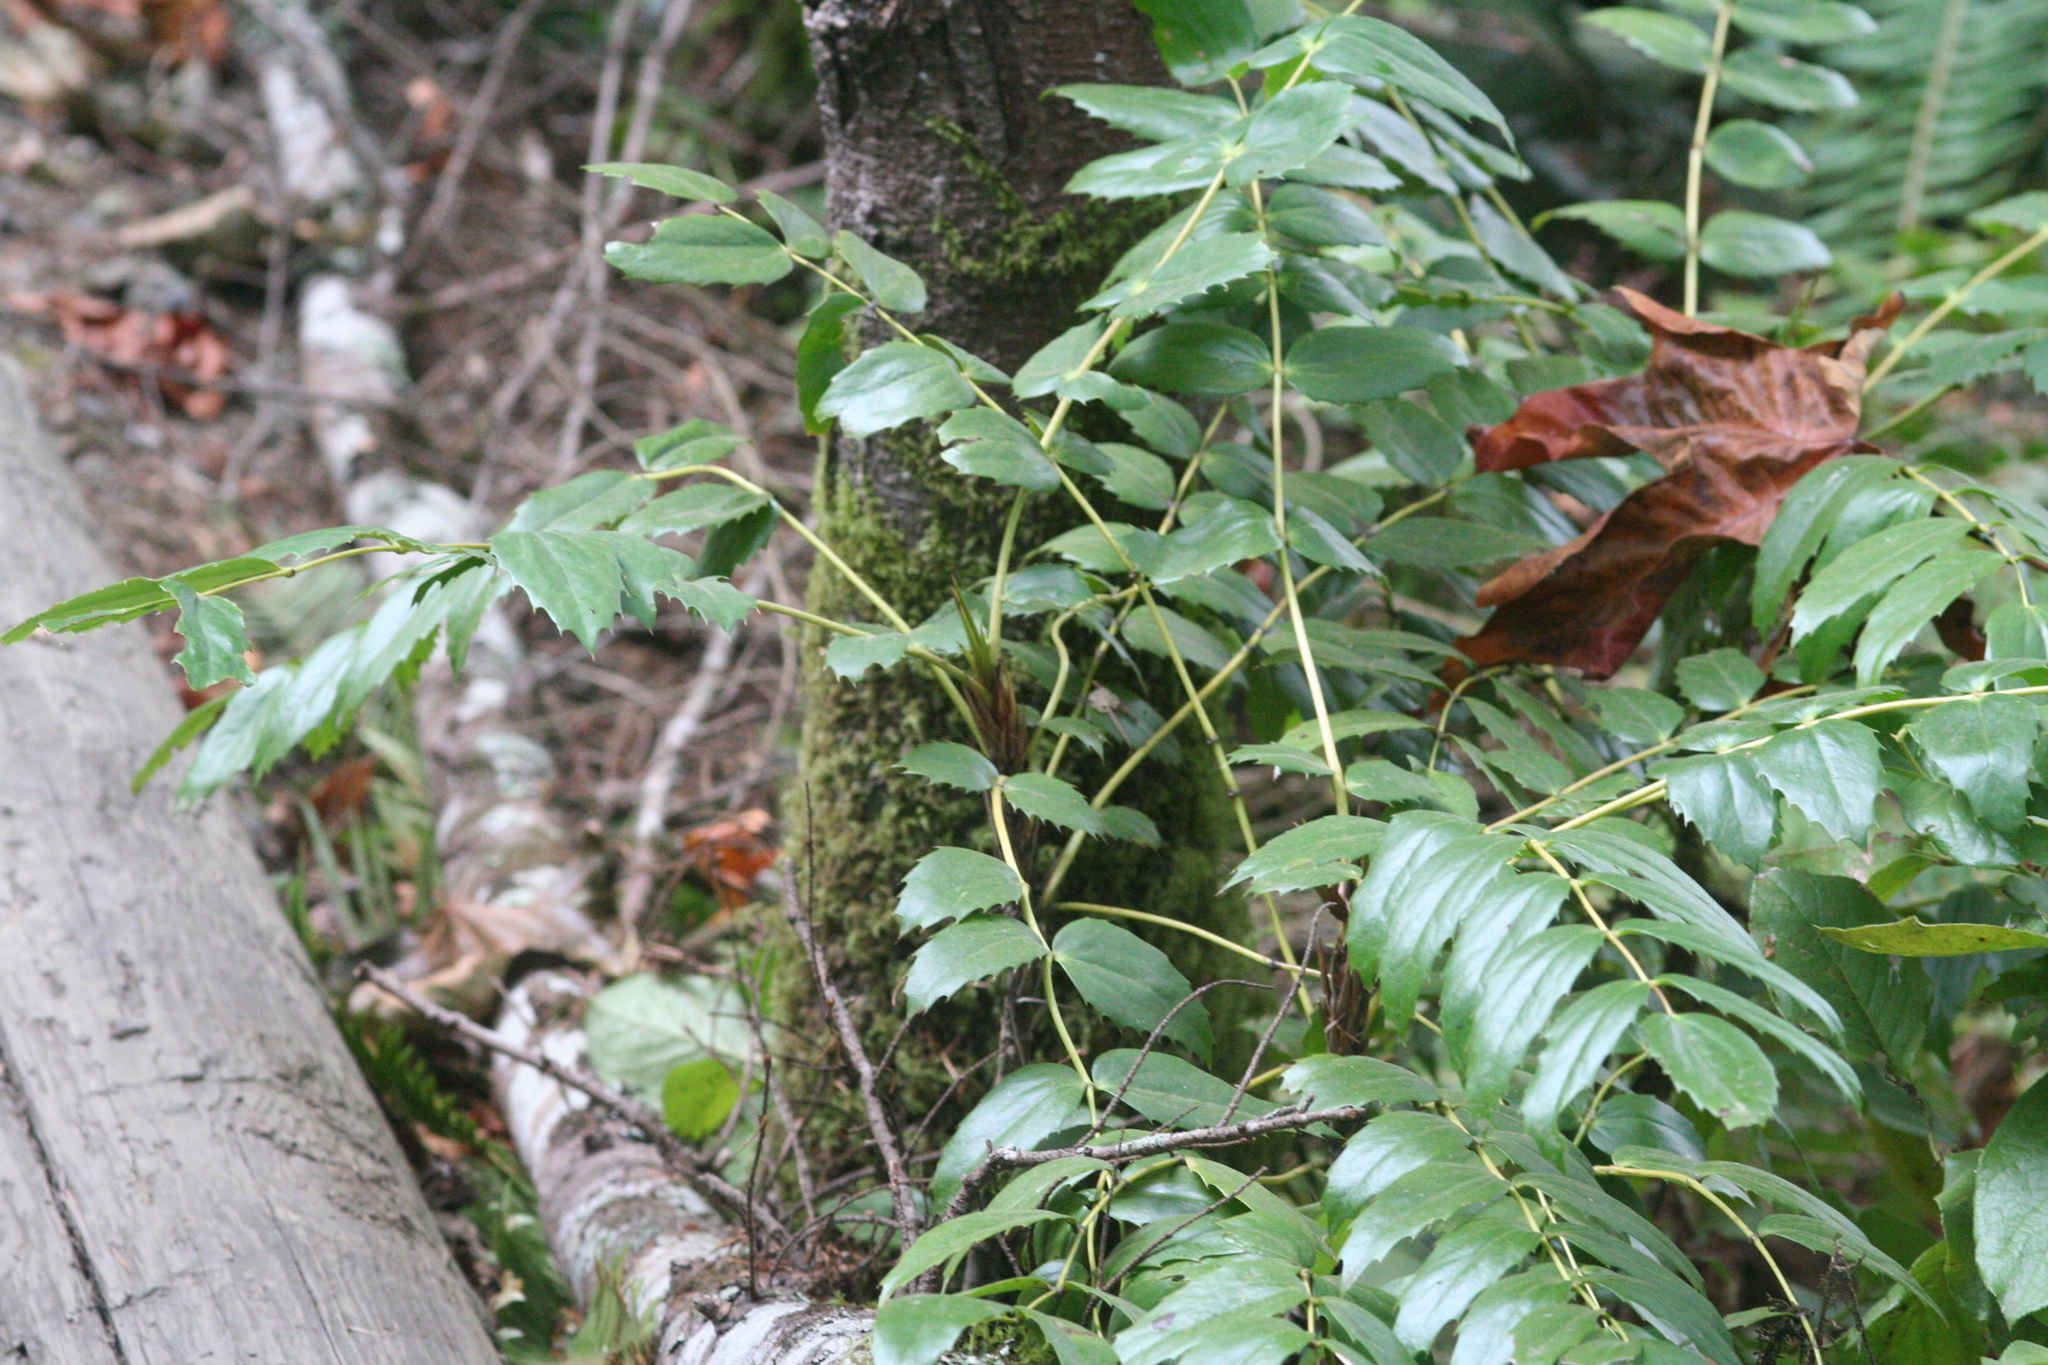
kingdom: Plantae
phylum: Tracheophyta
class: Magnoliopsida
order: Ranunculales
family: Berberidaceae
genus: Mahonia
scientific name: Mahonia nervosa
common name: Cascade oregon-grape
